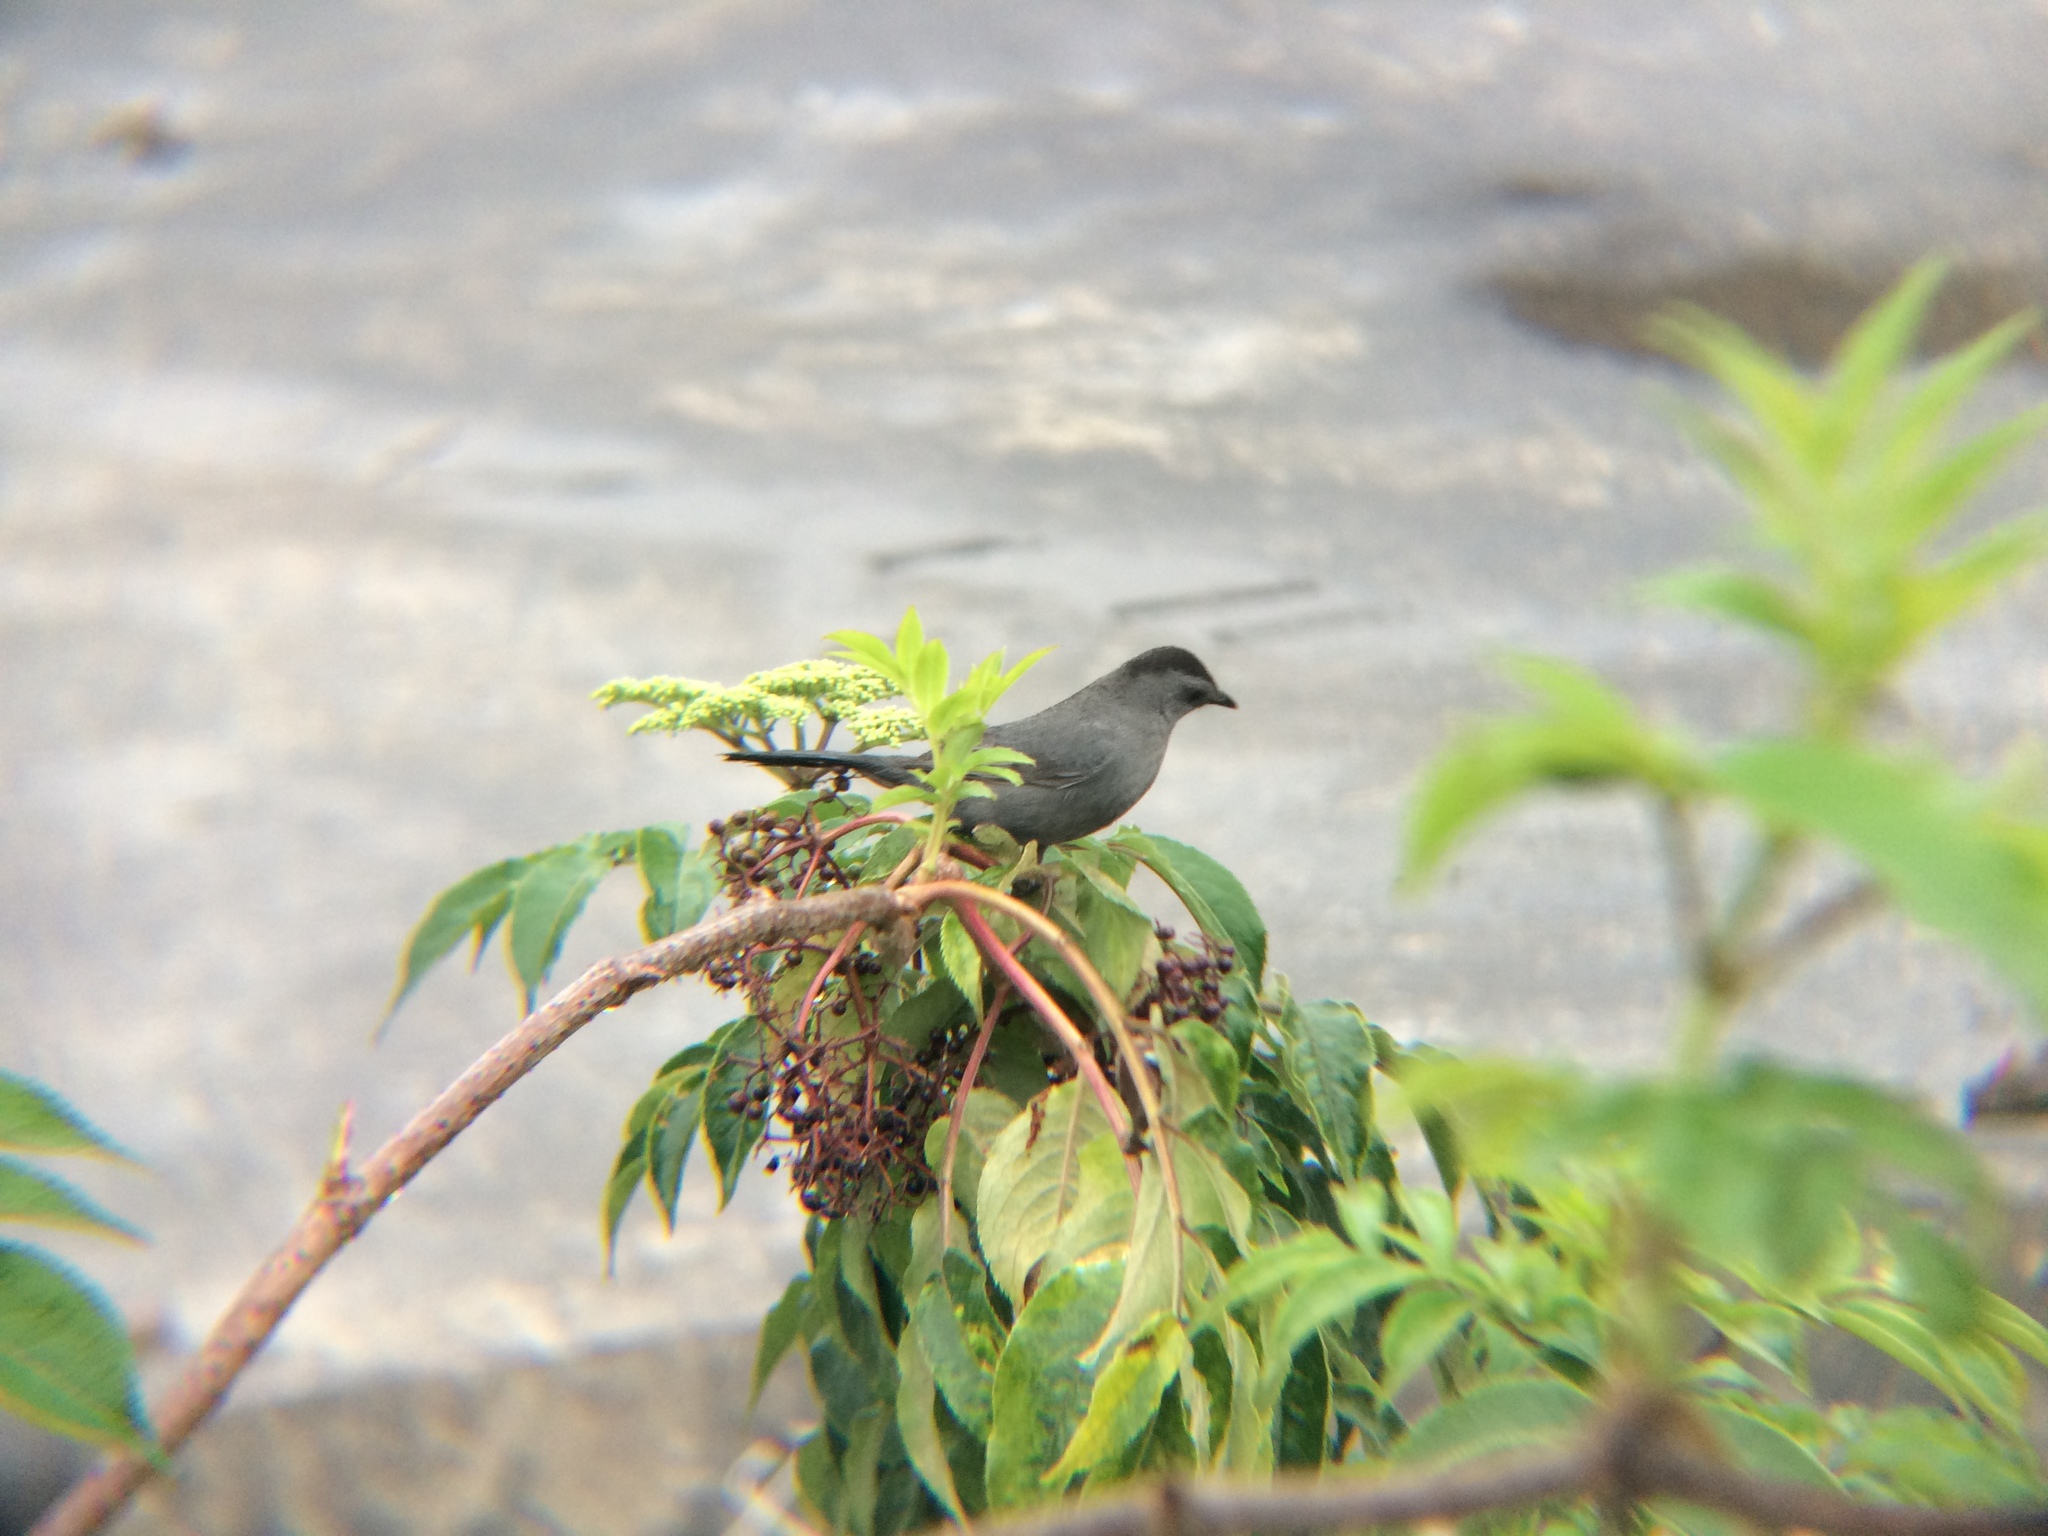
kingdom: Animalia
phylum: Chordata
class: Aves
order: Passeriformes
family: Mimidae
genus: Dumetella
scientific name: Dumetella carolinensis
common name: Gray catbird
